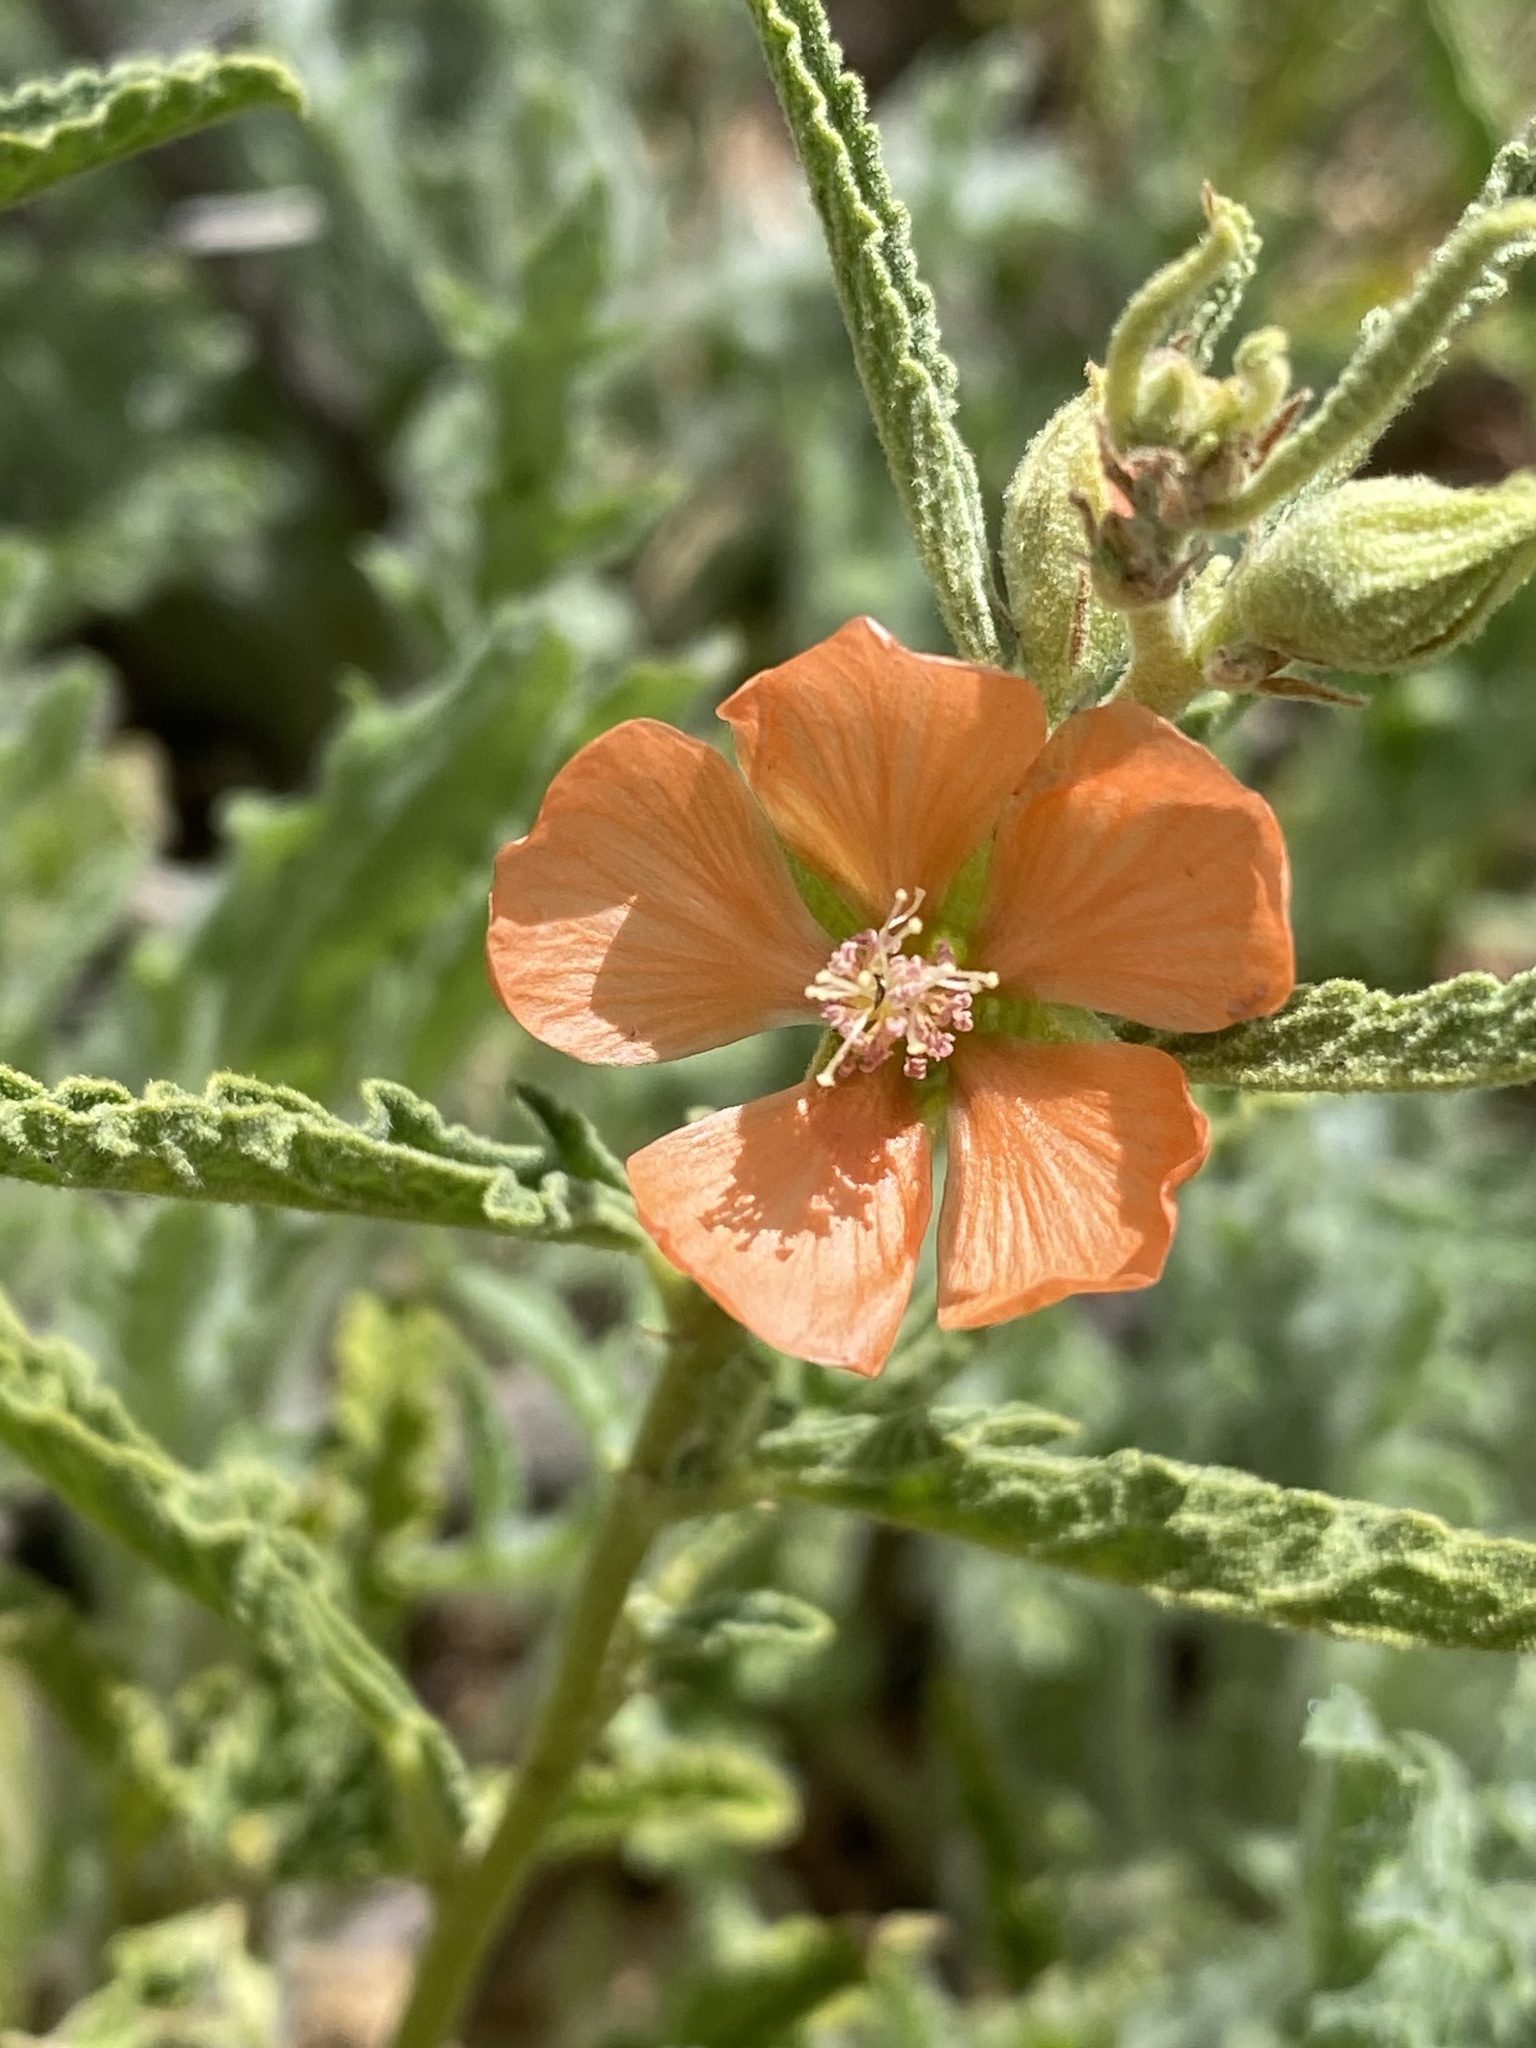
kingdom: Plantae
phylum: Tracheophyta
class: Magnoliopsida
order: Malvales
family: Malvaceae
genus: Sphaeralcea
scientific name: Sphaeralcea angustifolia
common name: Copper globe-mallow
